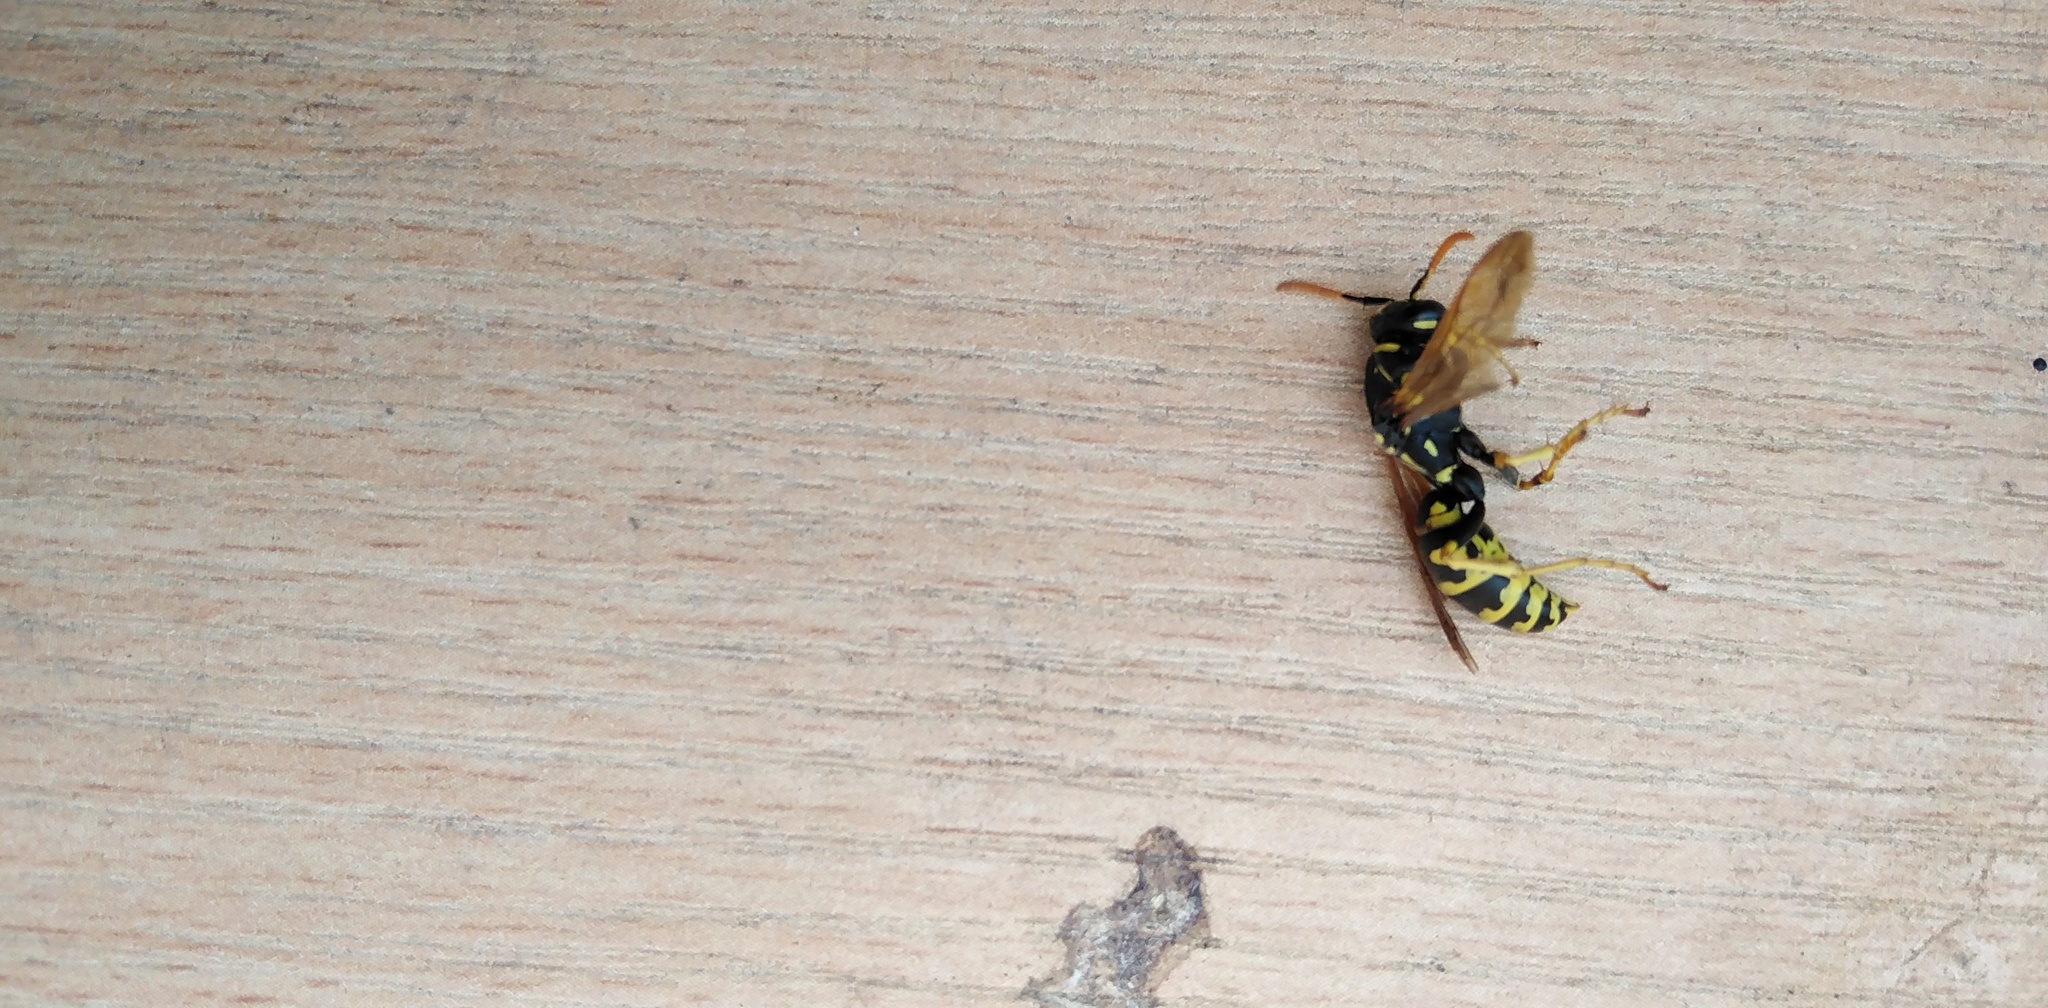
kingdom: Animalia
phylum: Arthropoda
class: Insecta
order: Hymenoptera
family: Eumenidae
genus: Polistes
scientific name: Polistes dominula
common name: Paper wasp
